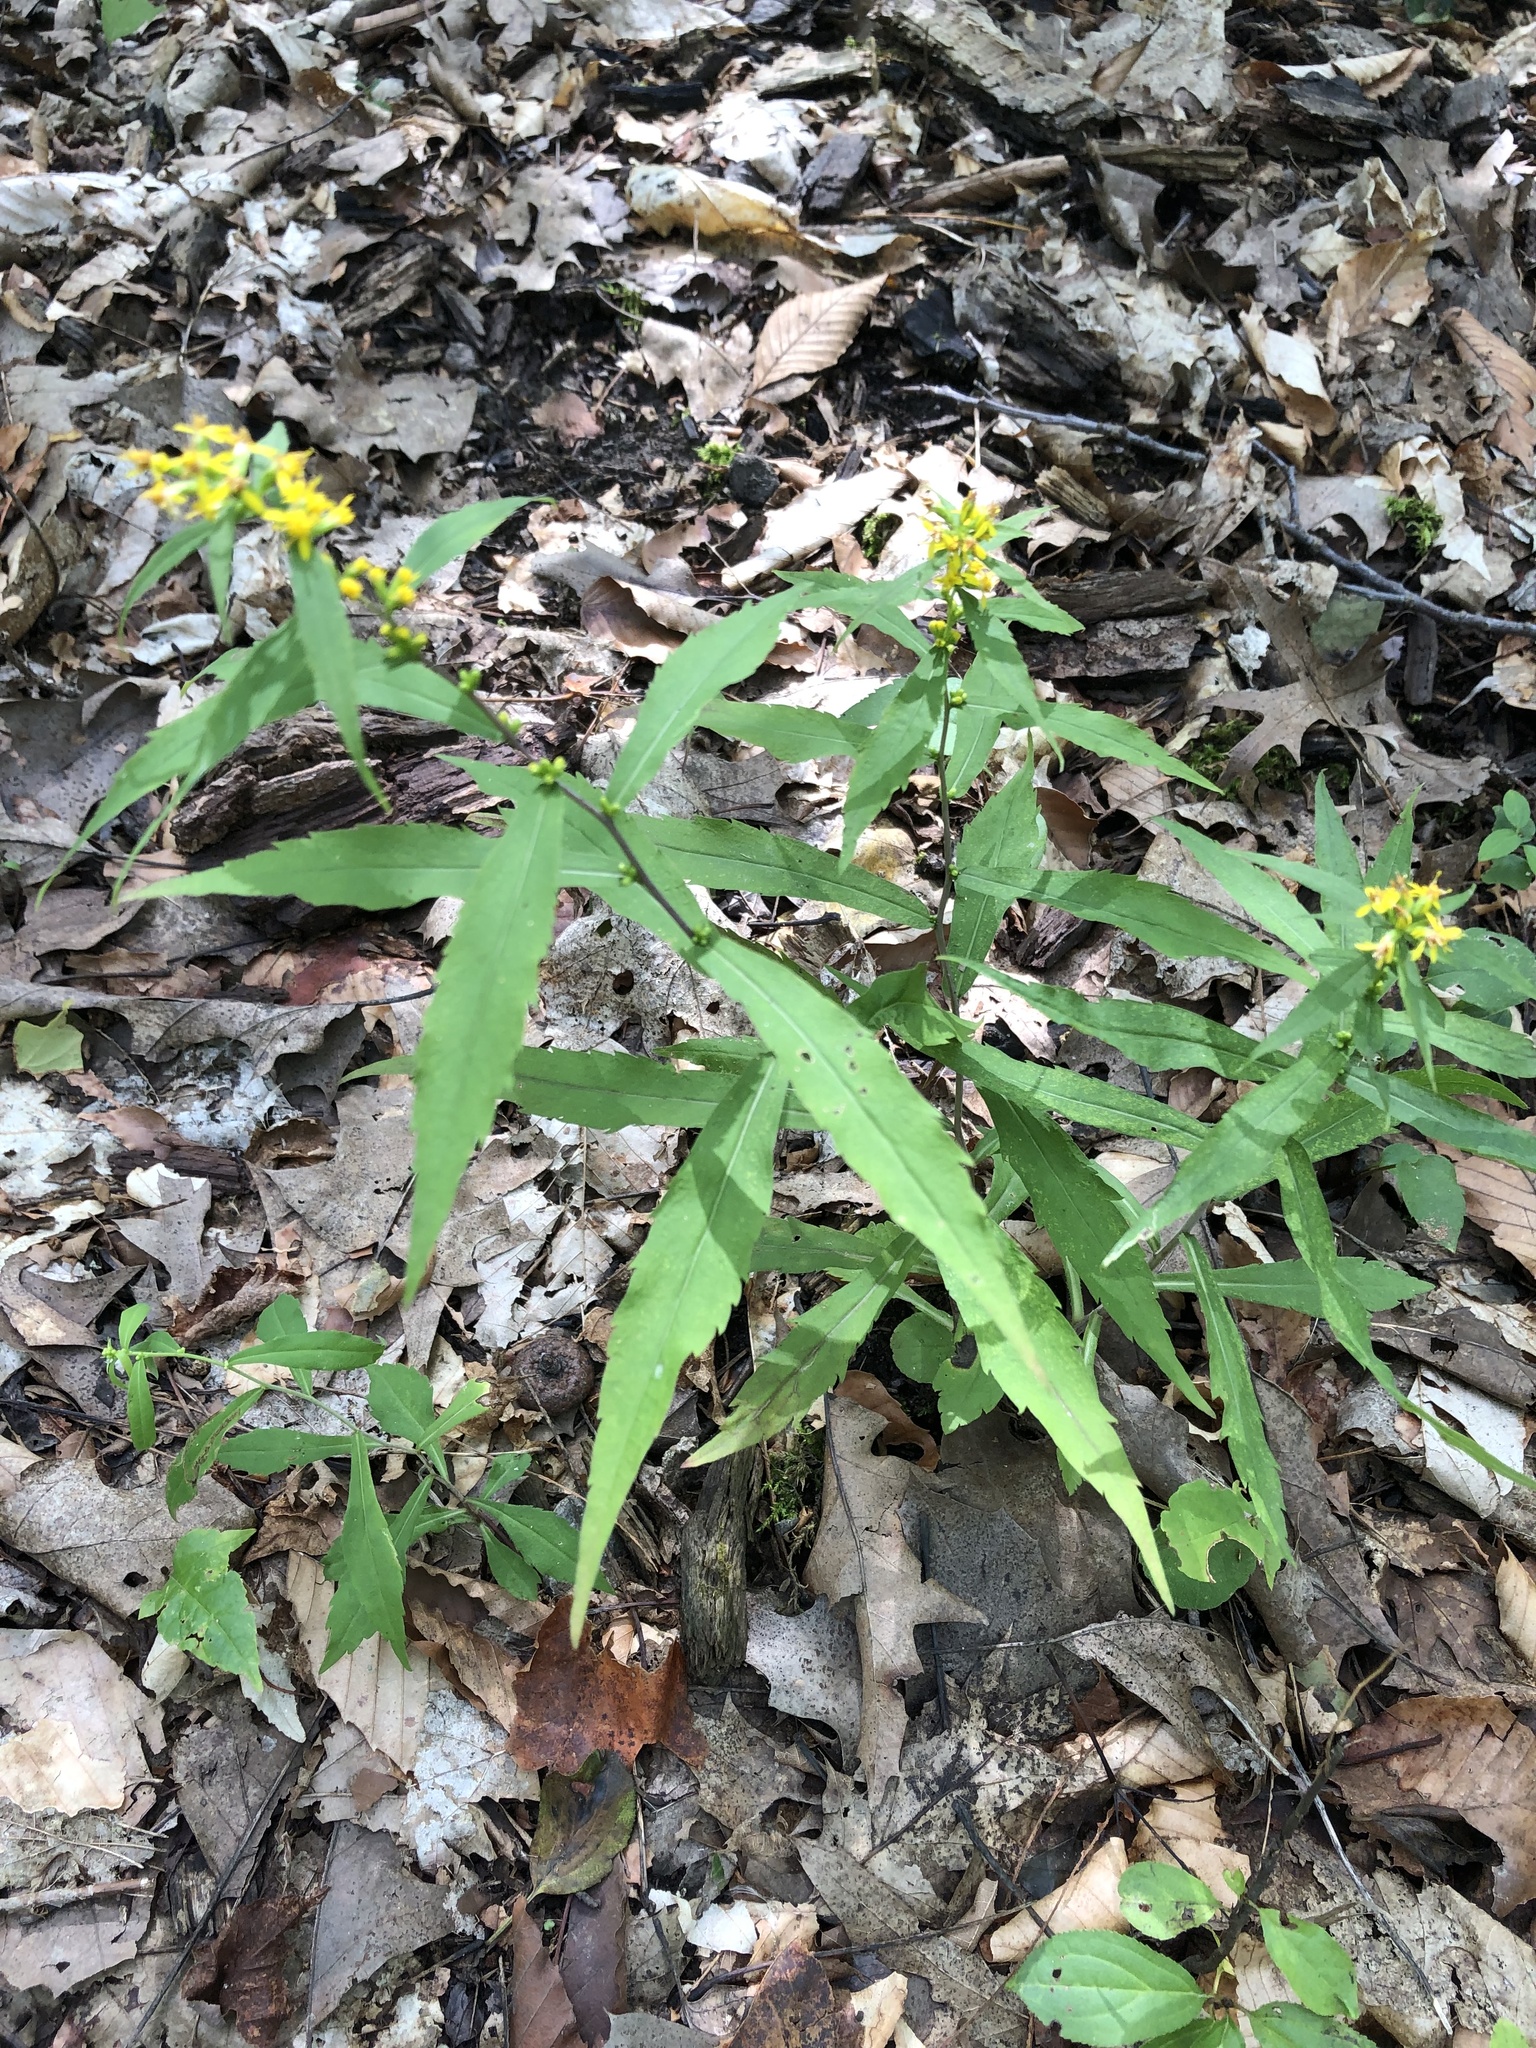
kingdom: Plantae
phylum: Tracheophyta
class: Magnoliopsida
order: Asterales
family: Asteraceae
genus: Solidago
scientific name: Solidago caesia
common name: Woodland goldenrod
